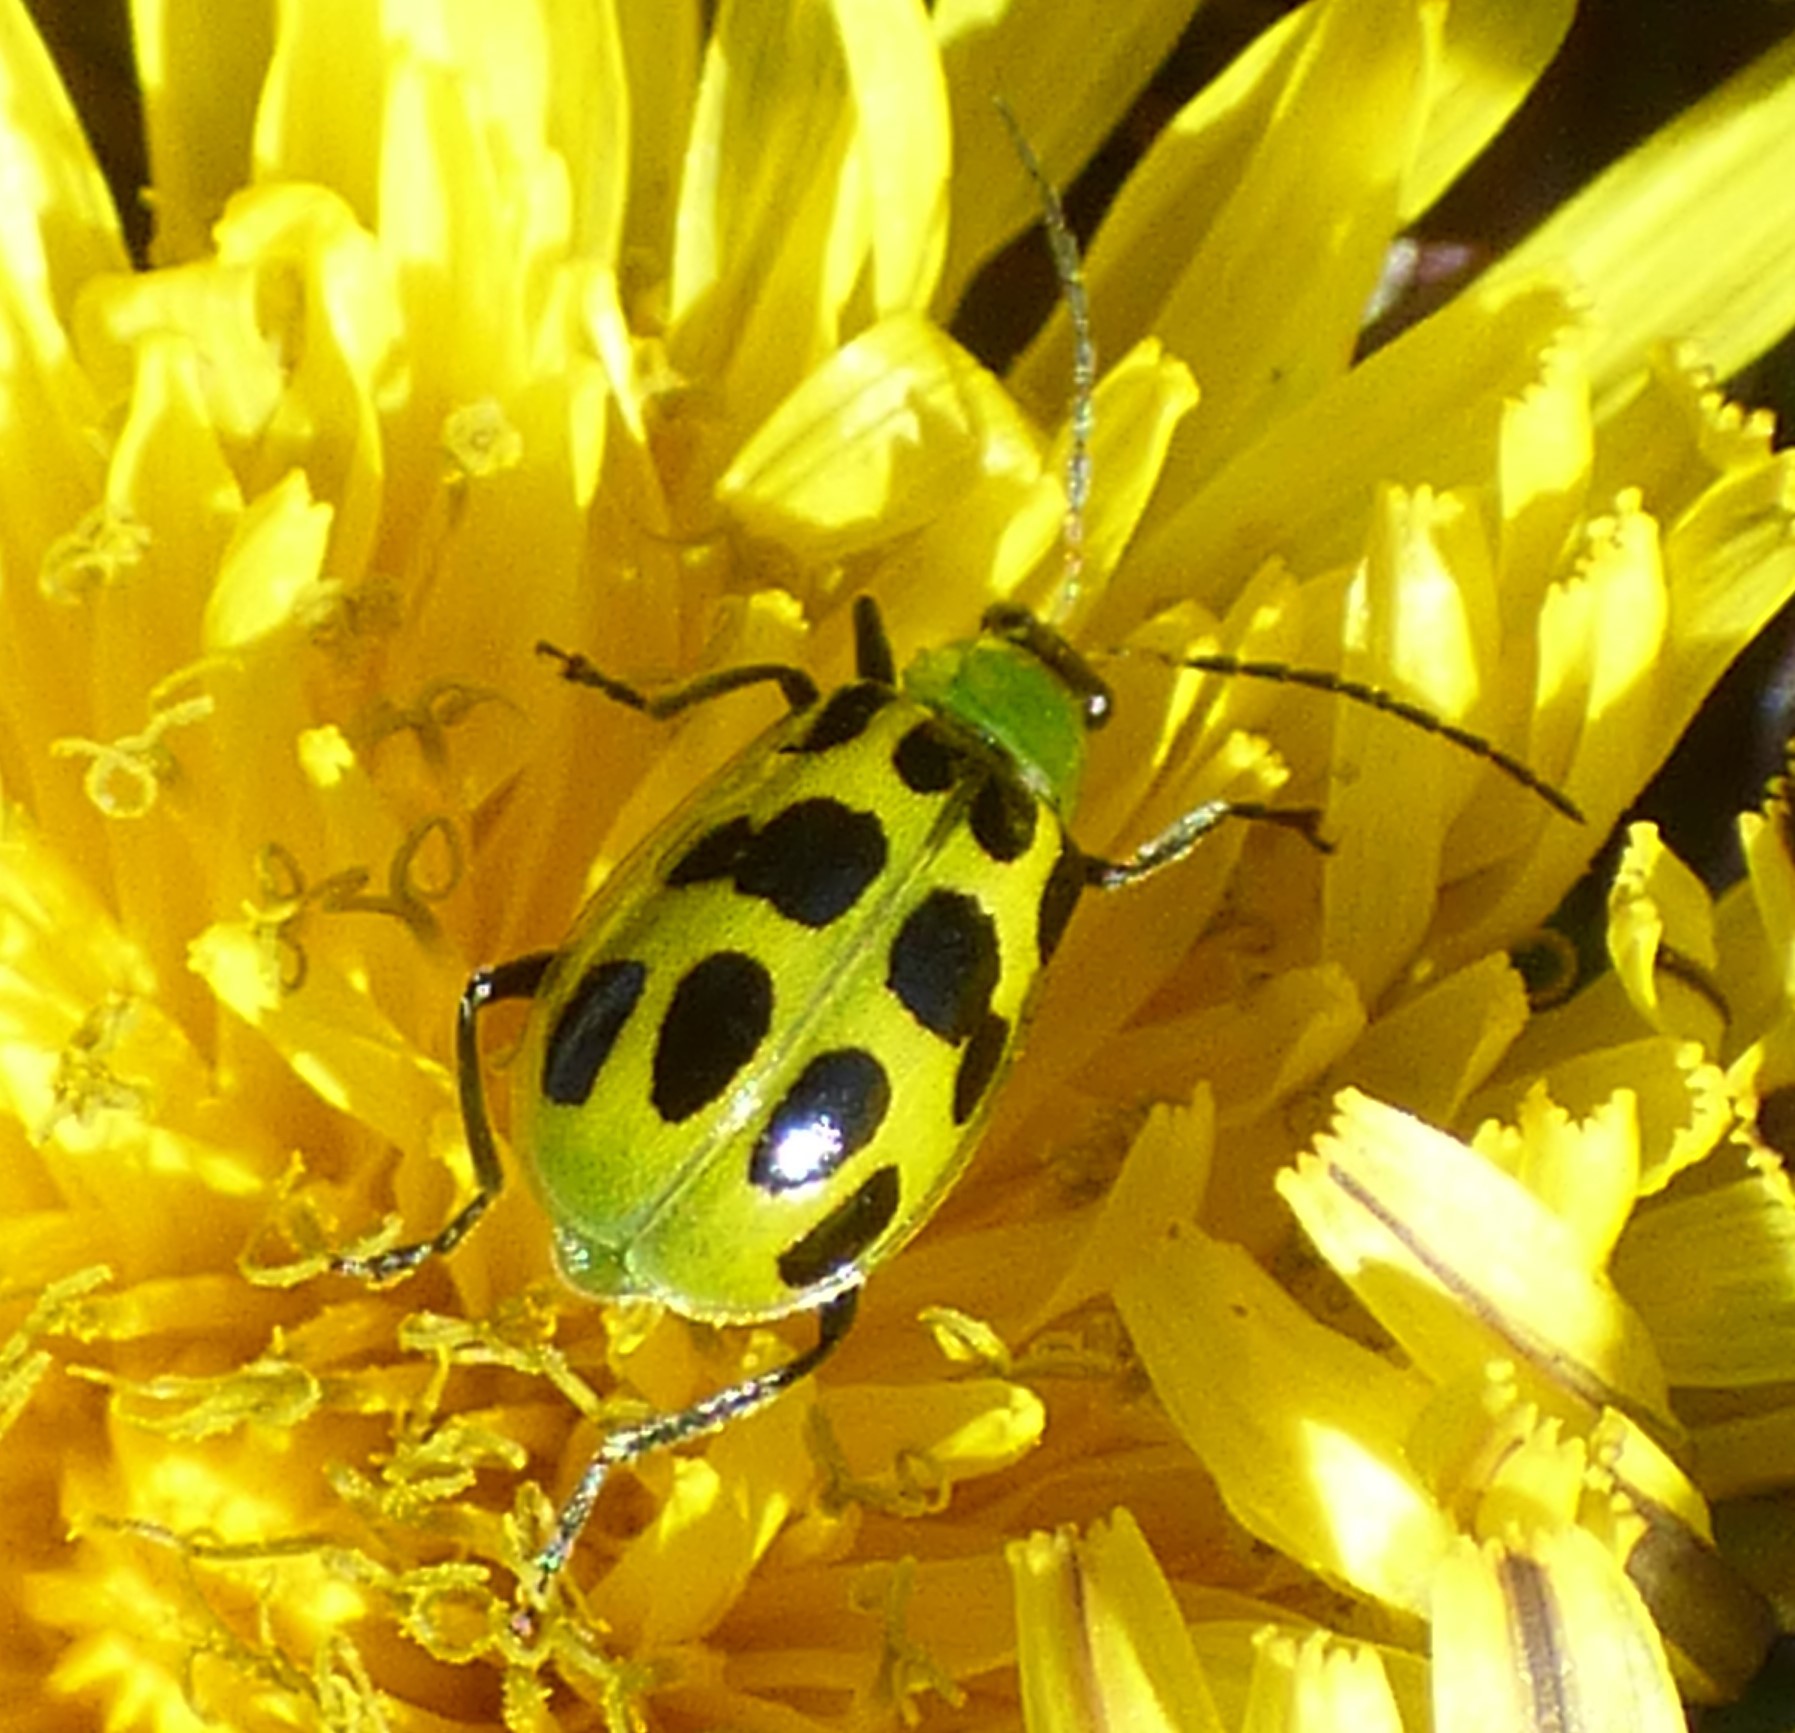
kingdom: Animalia
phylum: Arthropoda
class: Insecta
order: Coleoptera
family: Chrysomelidae
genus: Diabrotica
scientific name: Diabrotica undecimpunctata
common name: Spotted cucumber beetle
